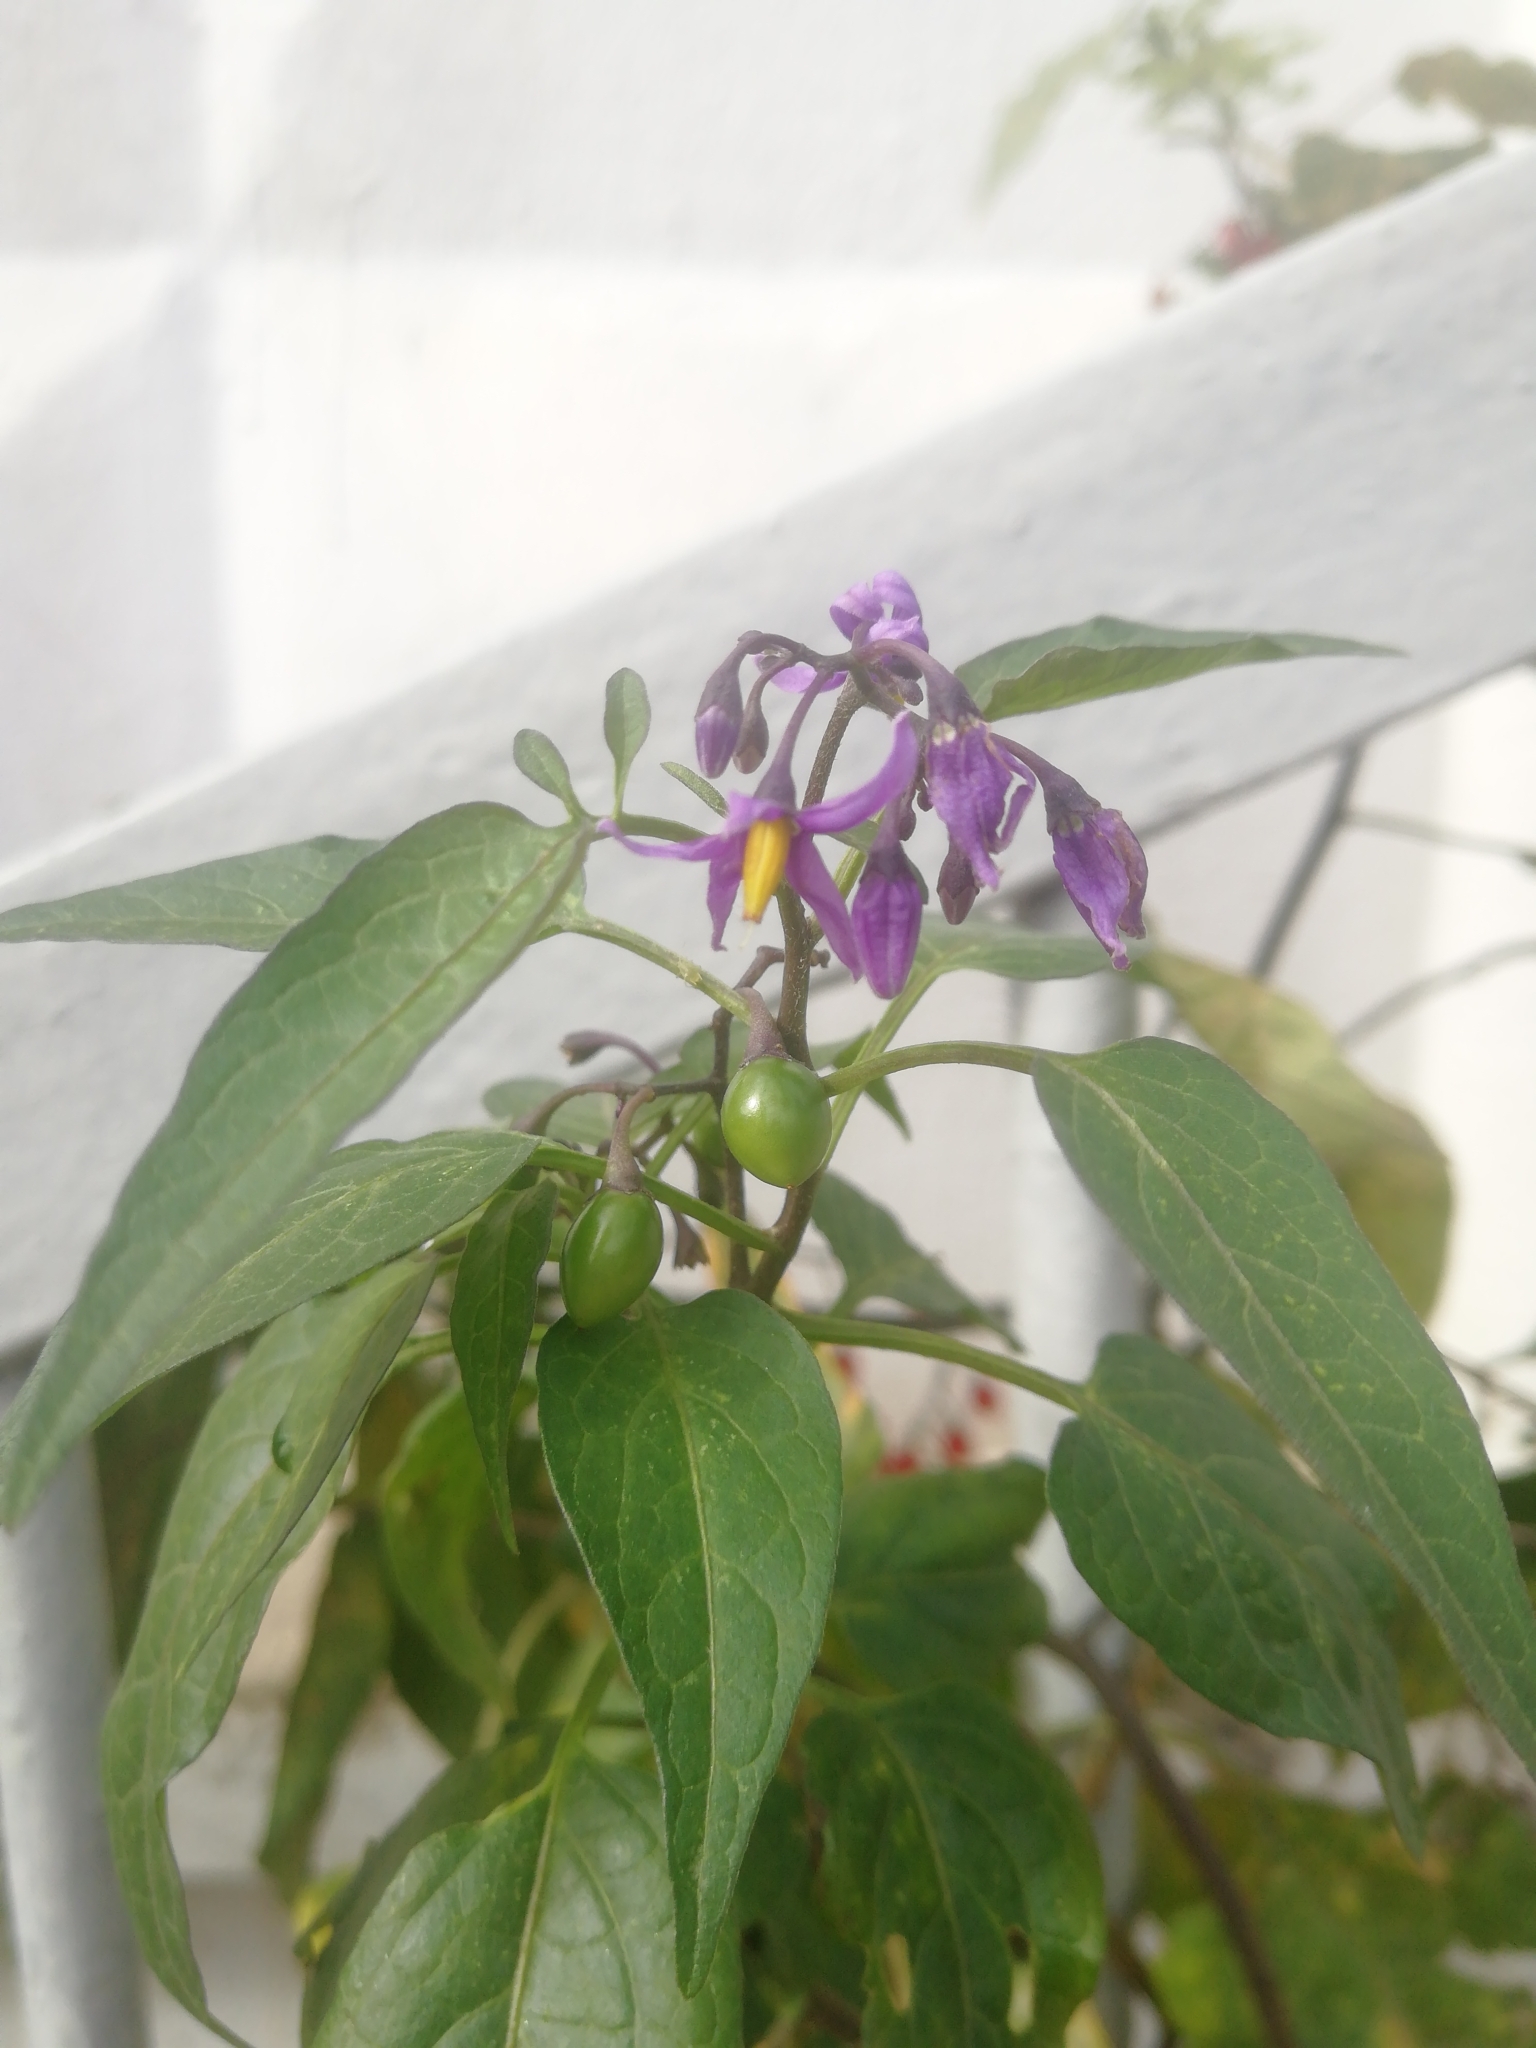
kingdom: Plantae
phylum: Tracheophyta
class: Magnoliopsida
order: Solanales
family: Solanaceae
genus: Solanum
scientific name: Solanum dulcamara
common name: Climbing nightshade
